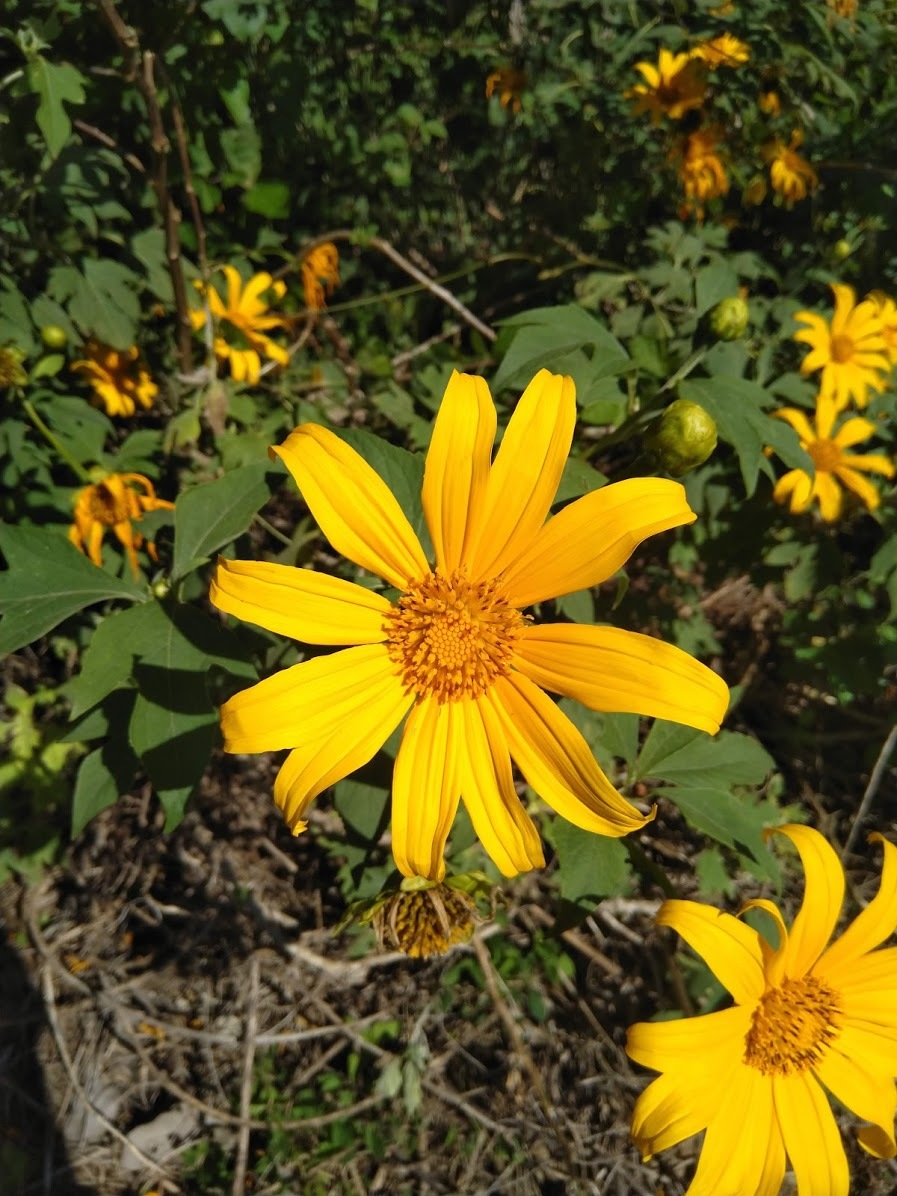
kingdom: Plantae
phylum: Tracheophyta
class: Magnoliopsida
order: Asterales
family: Asteraceae
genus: Tithonia
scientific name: Tithonia diversifolia
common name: Tree marigold
